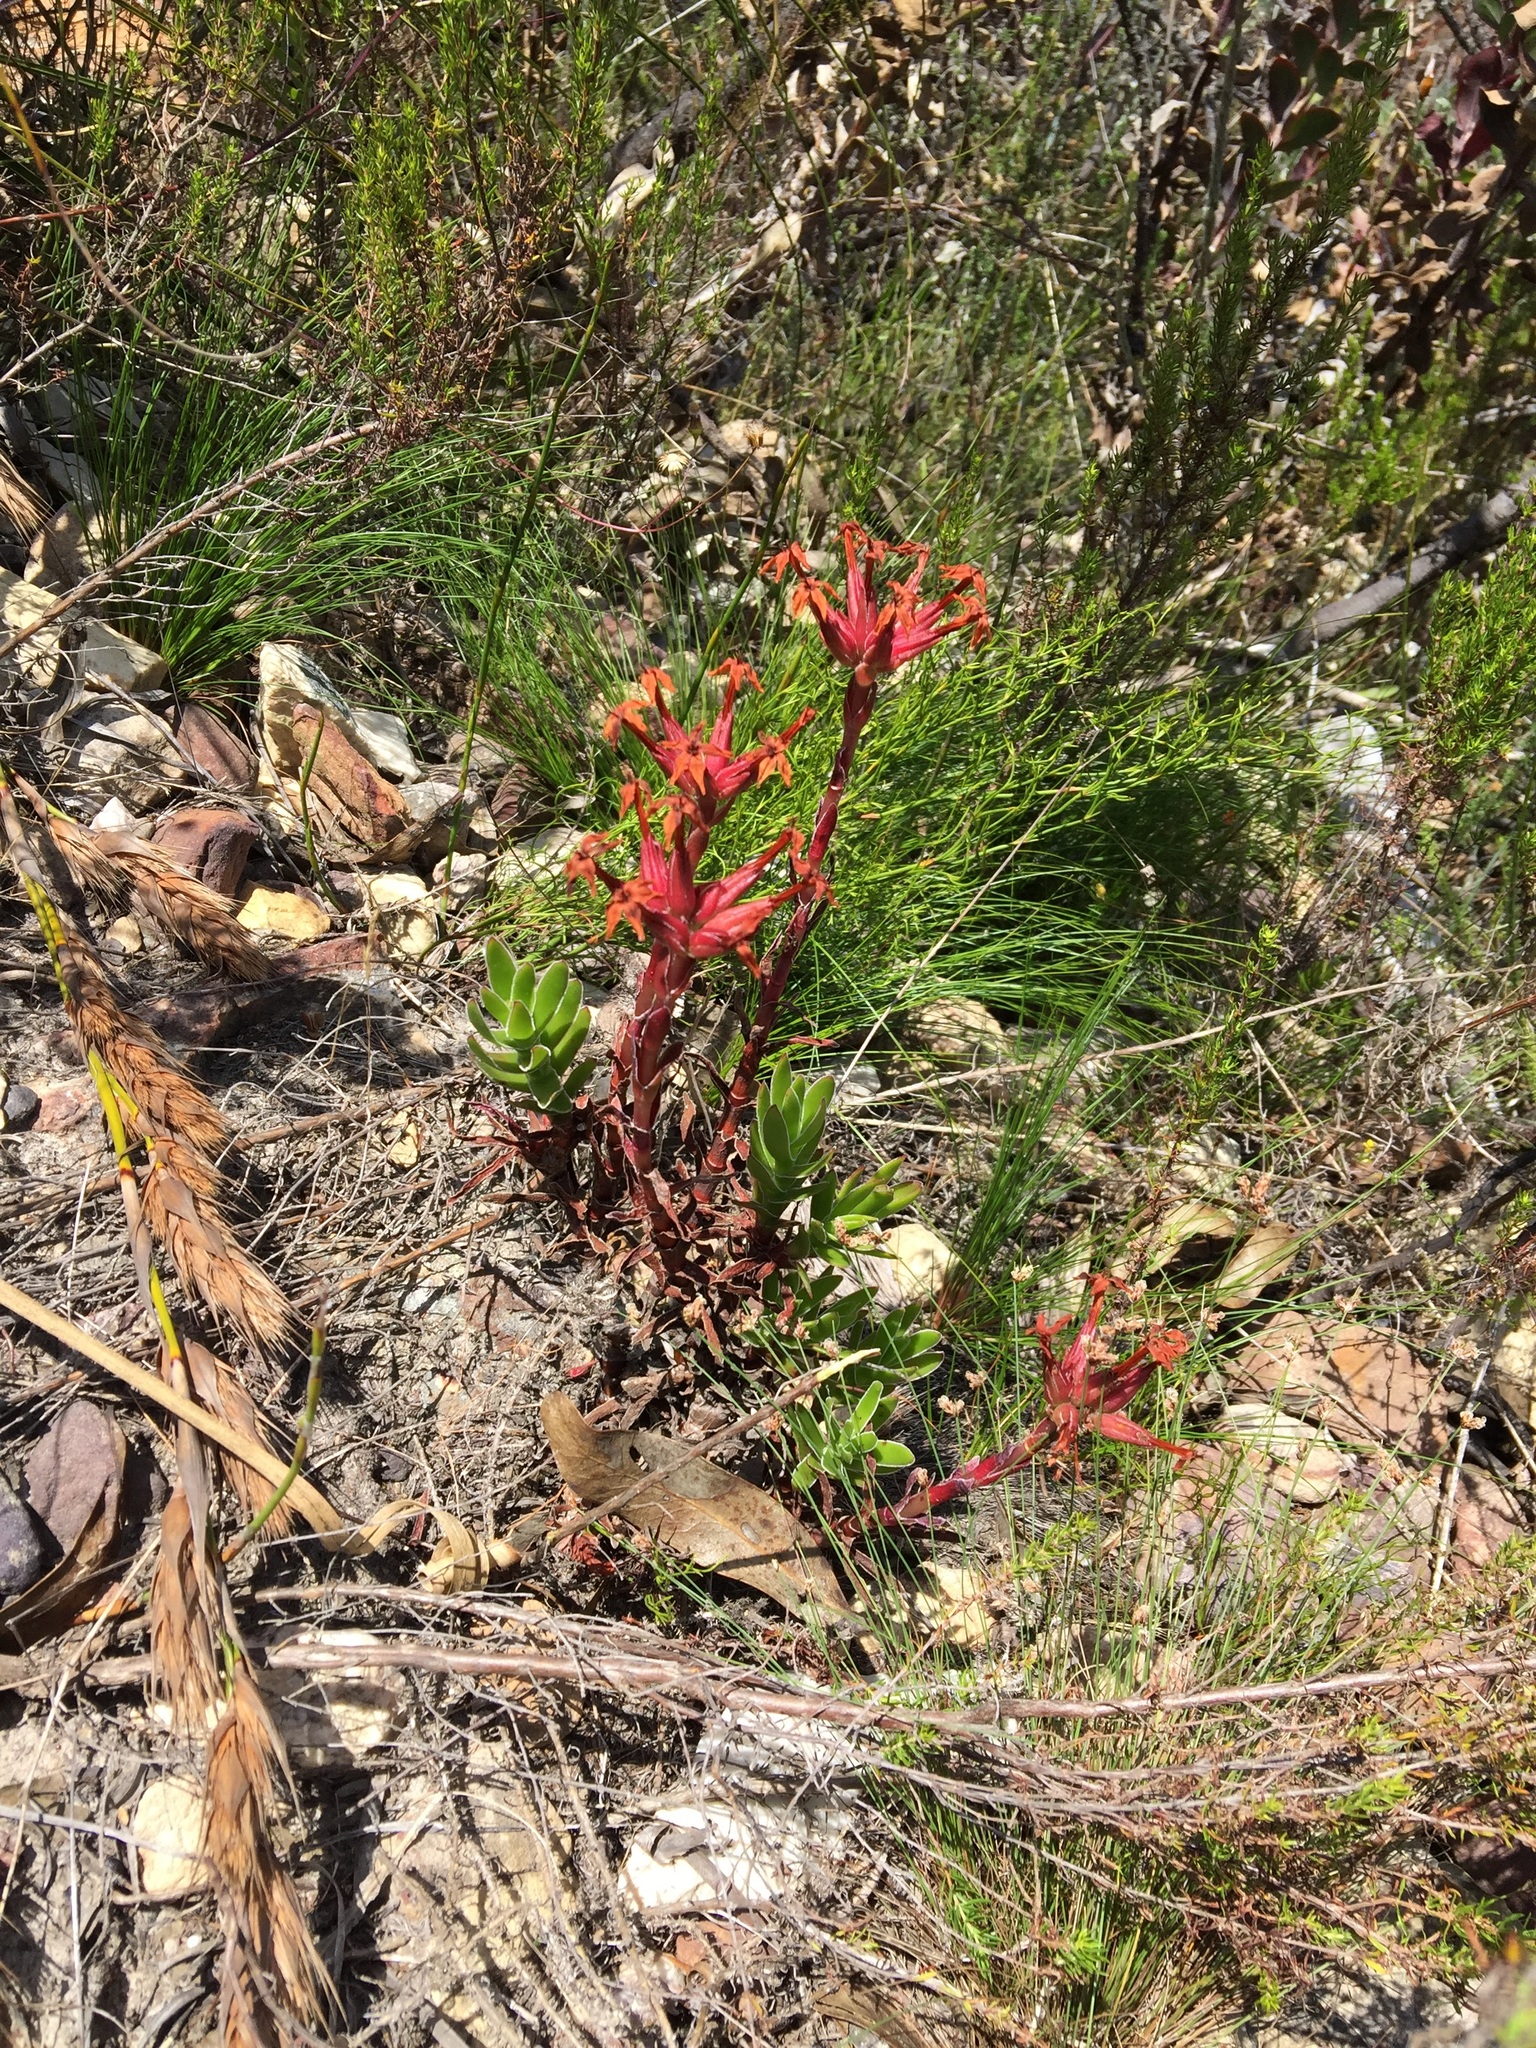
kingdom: Plantae
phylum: Tracheophyta
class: Magnoliopsida
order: Saxifragales
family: Crassulaceae
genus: Crassula
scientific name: Crassula fascicularis
